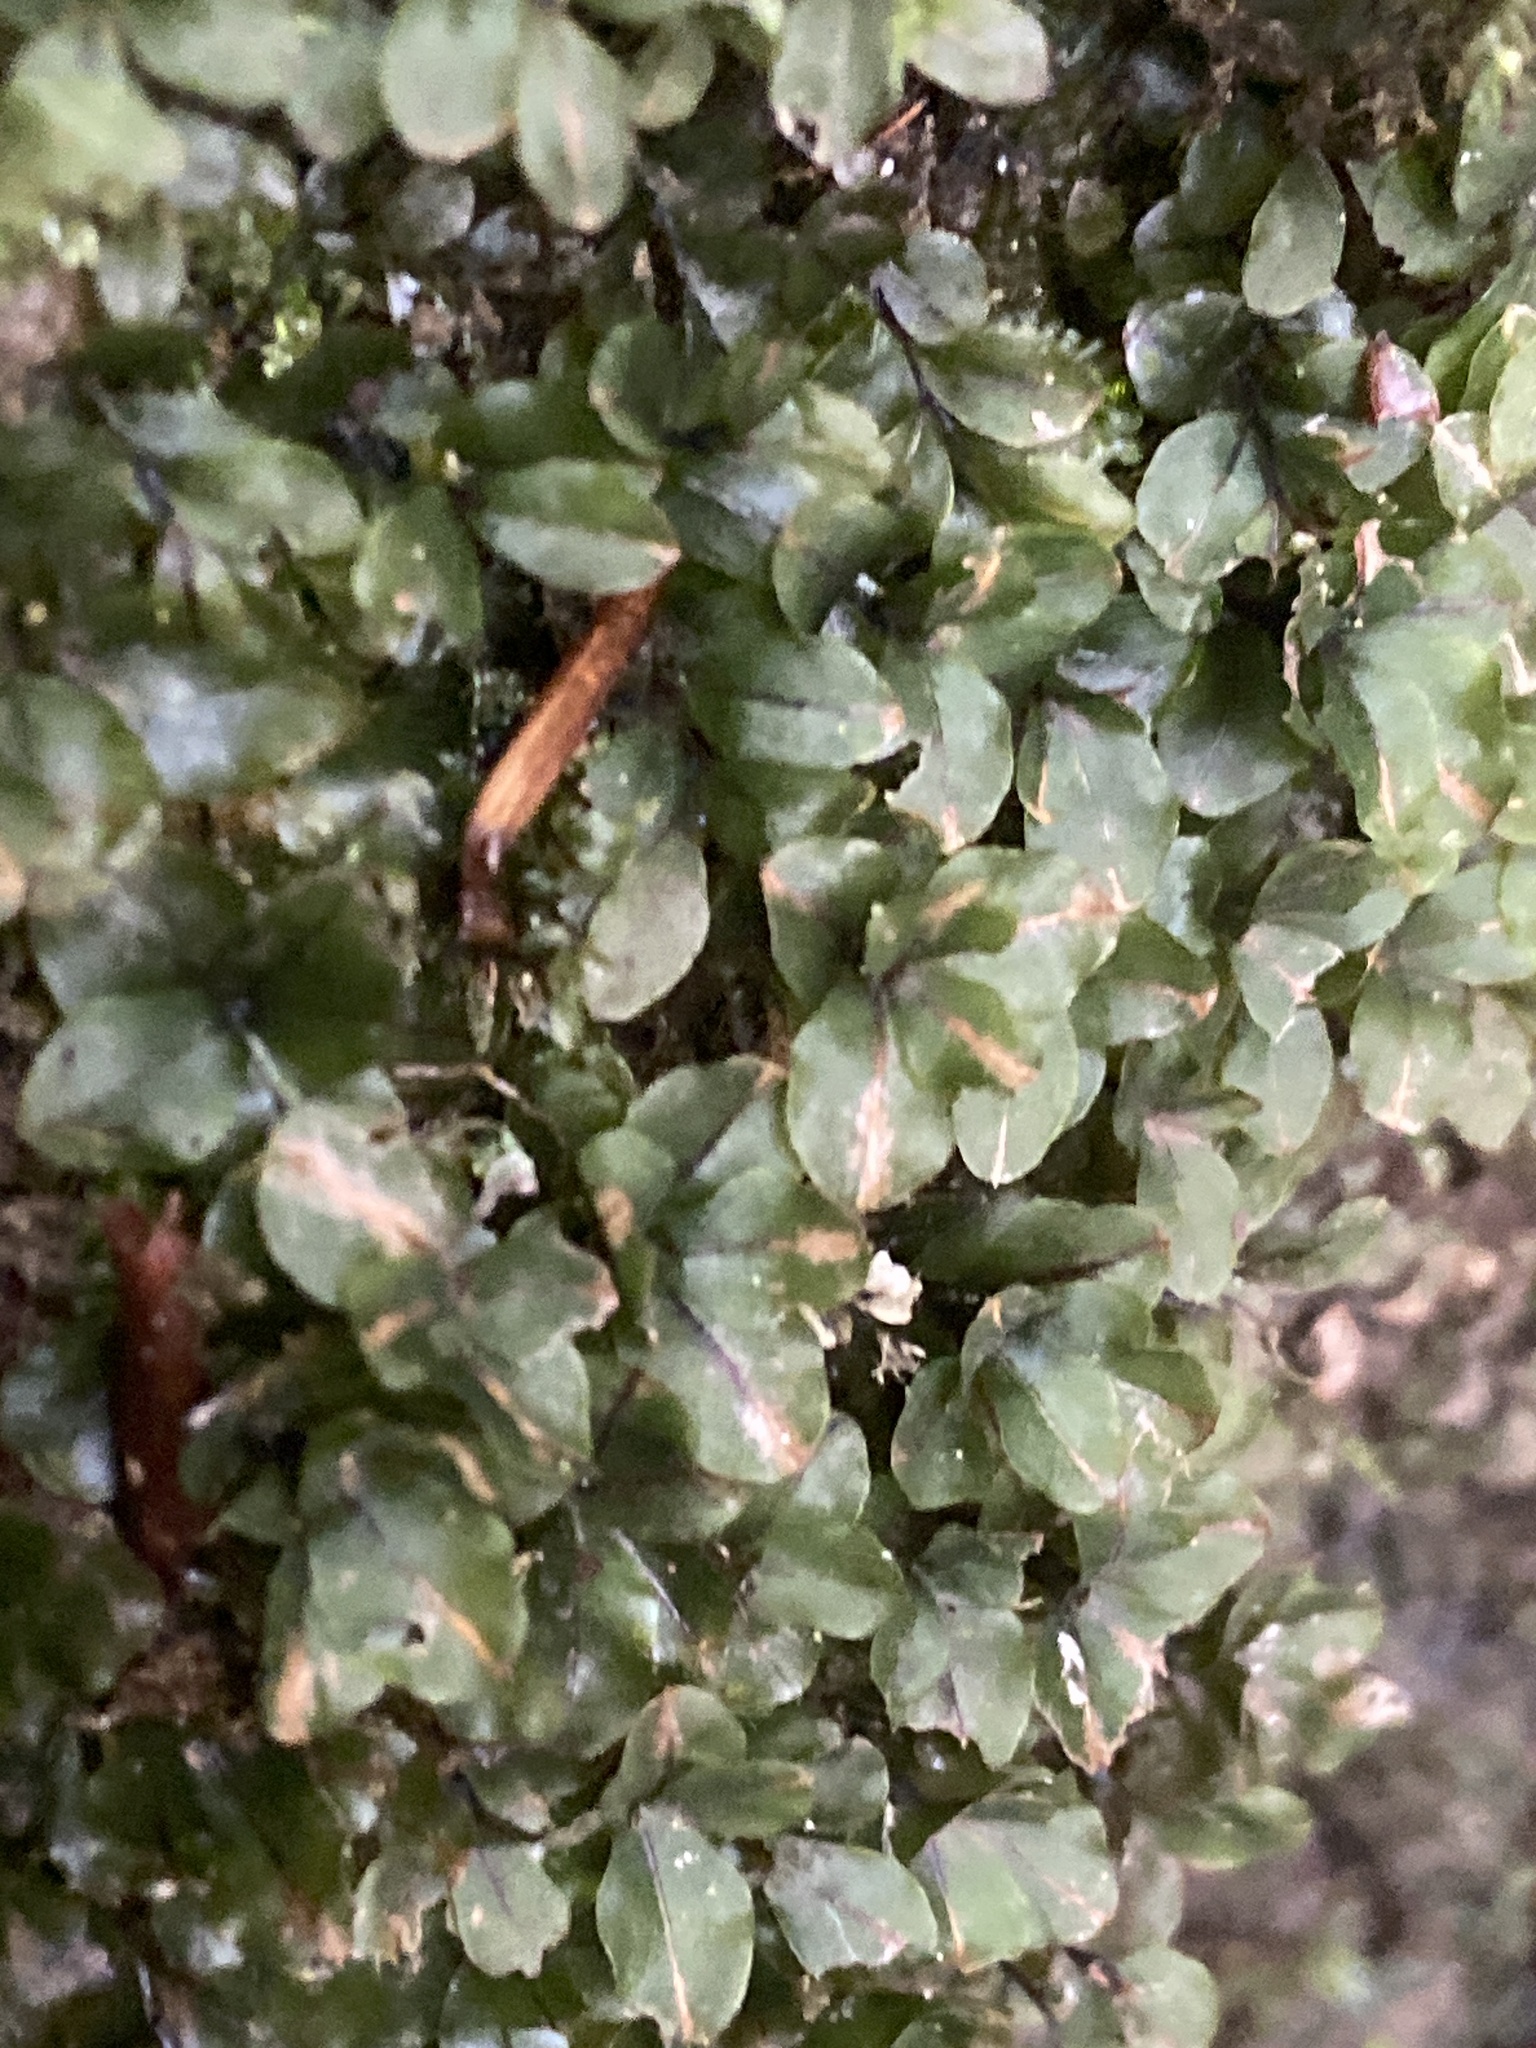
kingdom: Plantae
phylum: Bryophyta
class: Bryopsida
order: Bryales
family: Mniaceae
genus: Rhizomnium
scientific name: Rhizomnium punctatum
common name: Dotted leafy moss
